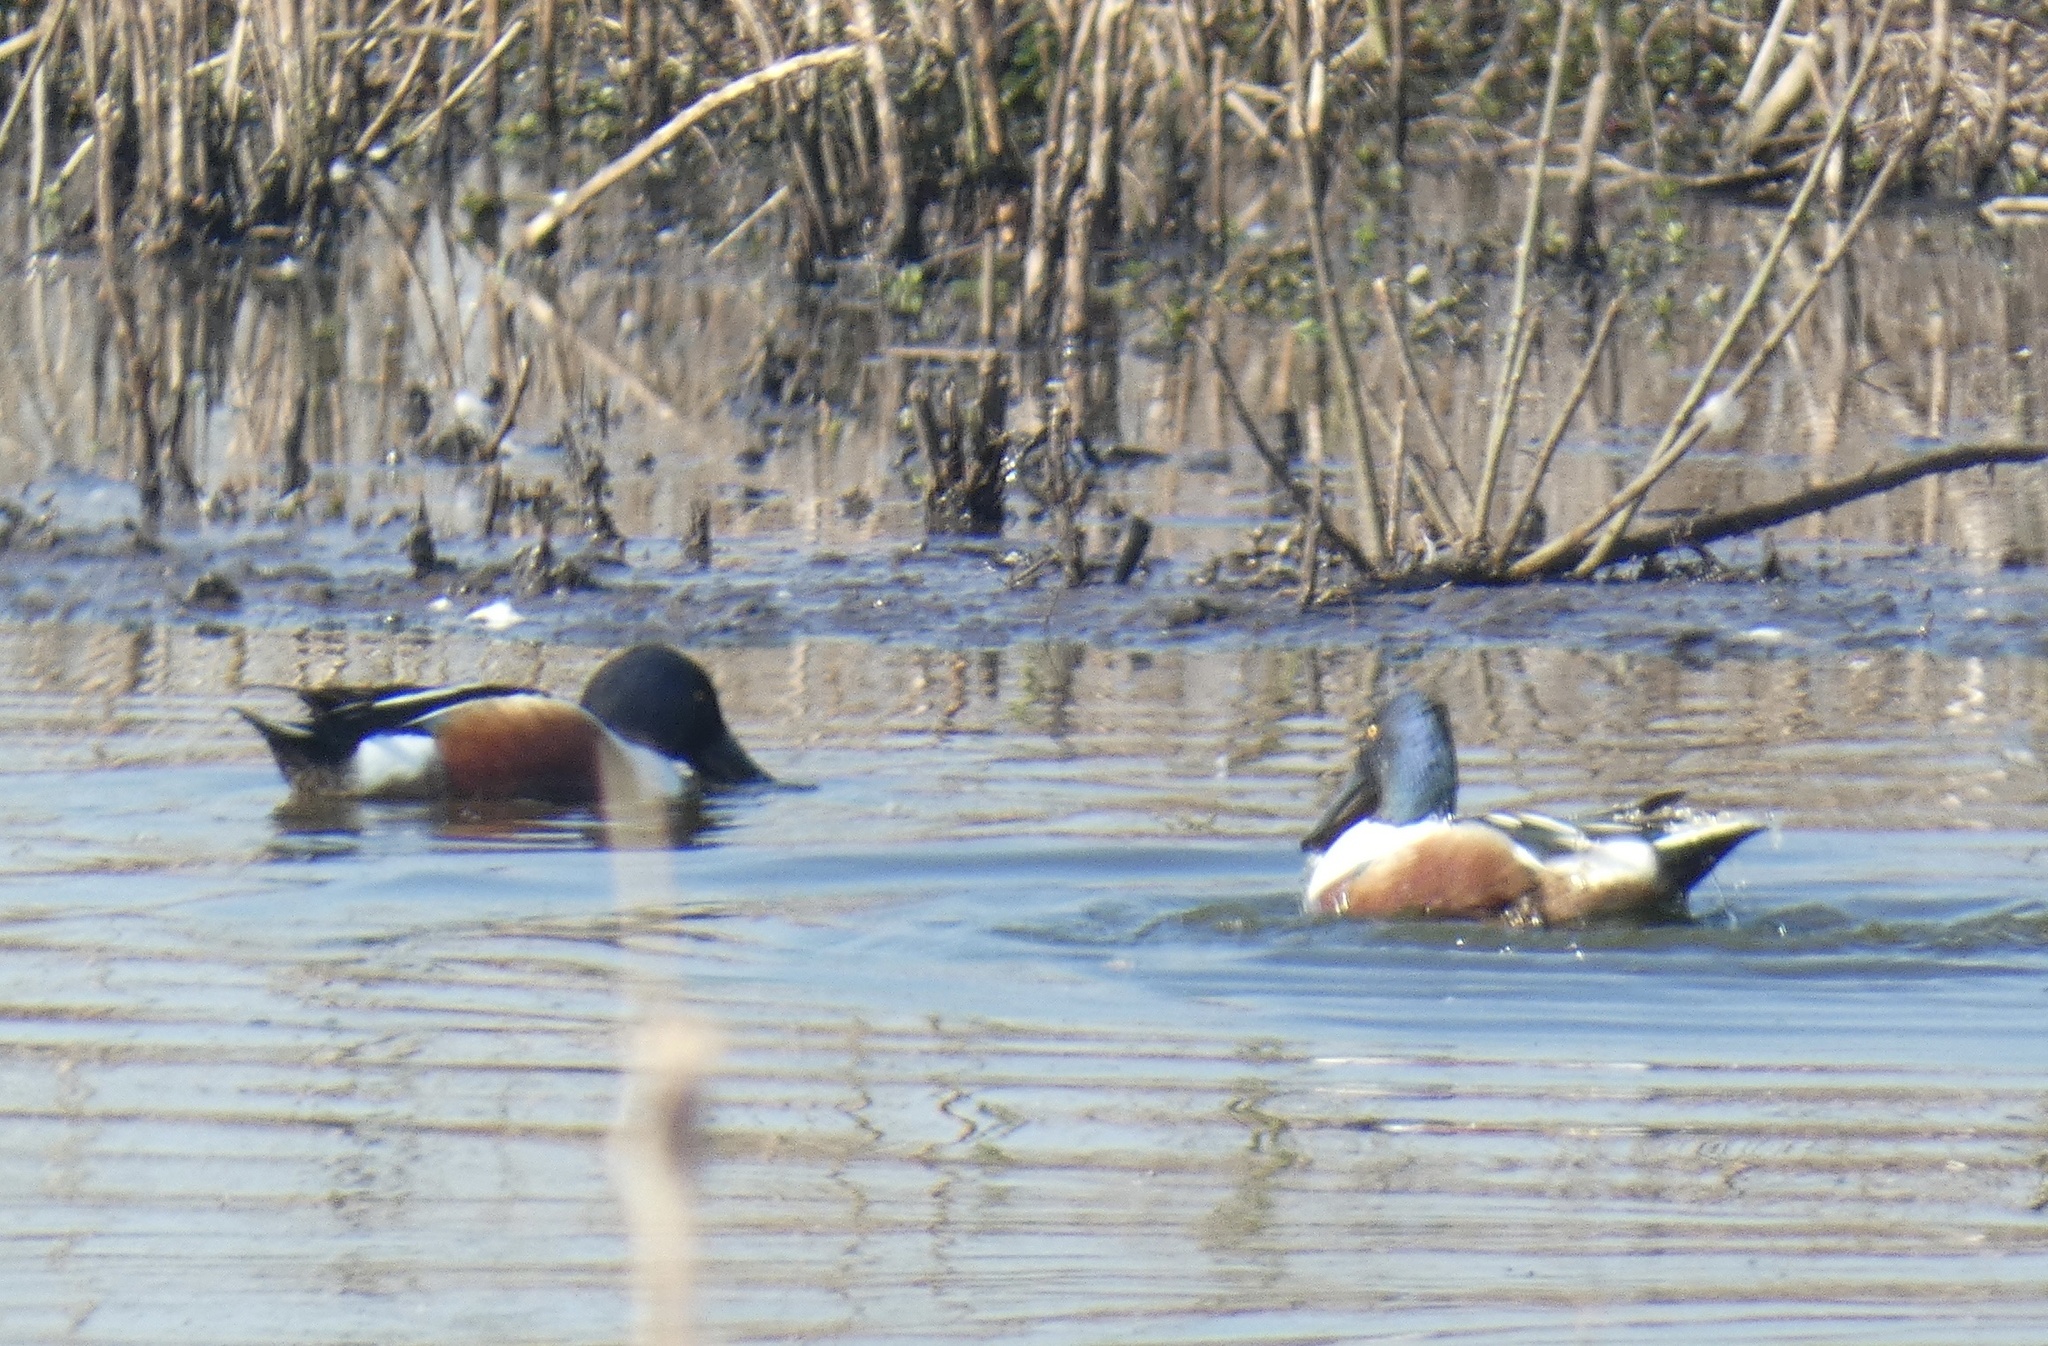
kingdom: Animalia
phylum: Chordata
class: Aves
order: Anseriformes
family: Anatidae
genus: Spatula
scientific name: Spatula clypeata
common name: Northern shoveler
